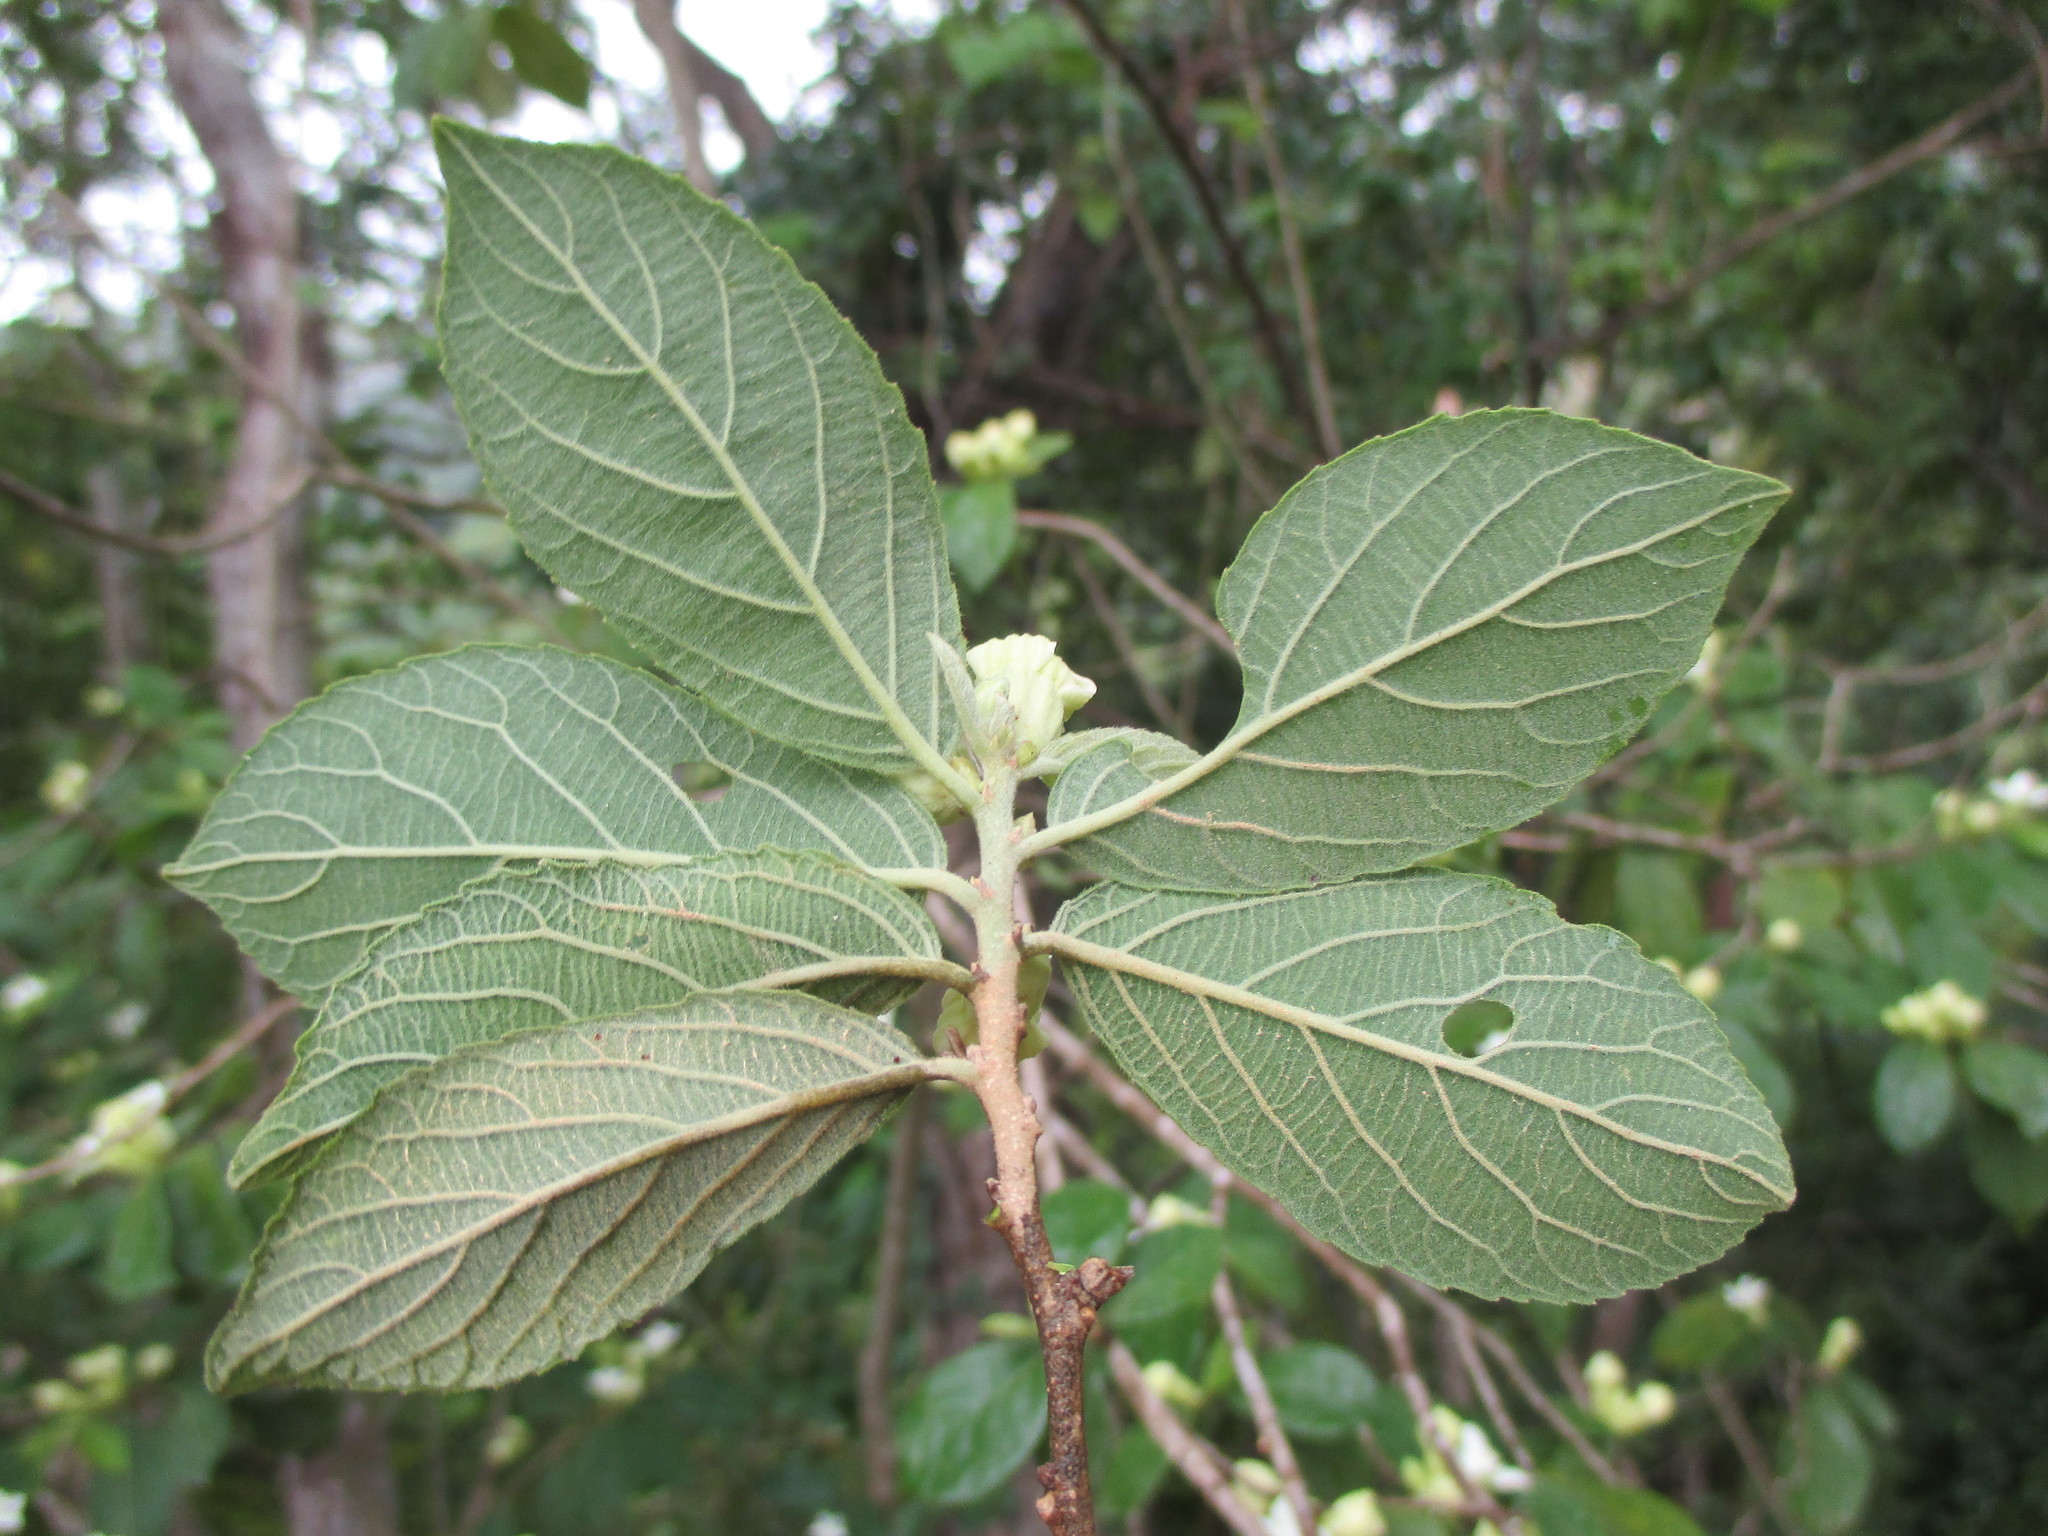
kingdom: Plantae
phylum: Tracheophyta
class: Magnoliopsida
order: Malpighiales
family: Salicaceae
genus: Casearia
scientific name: Casearia mexicana
